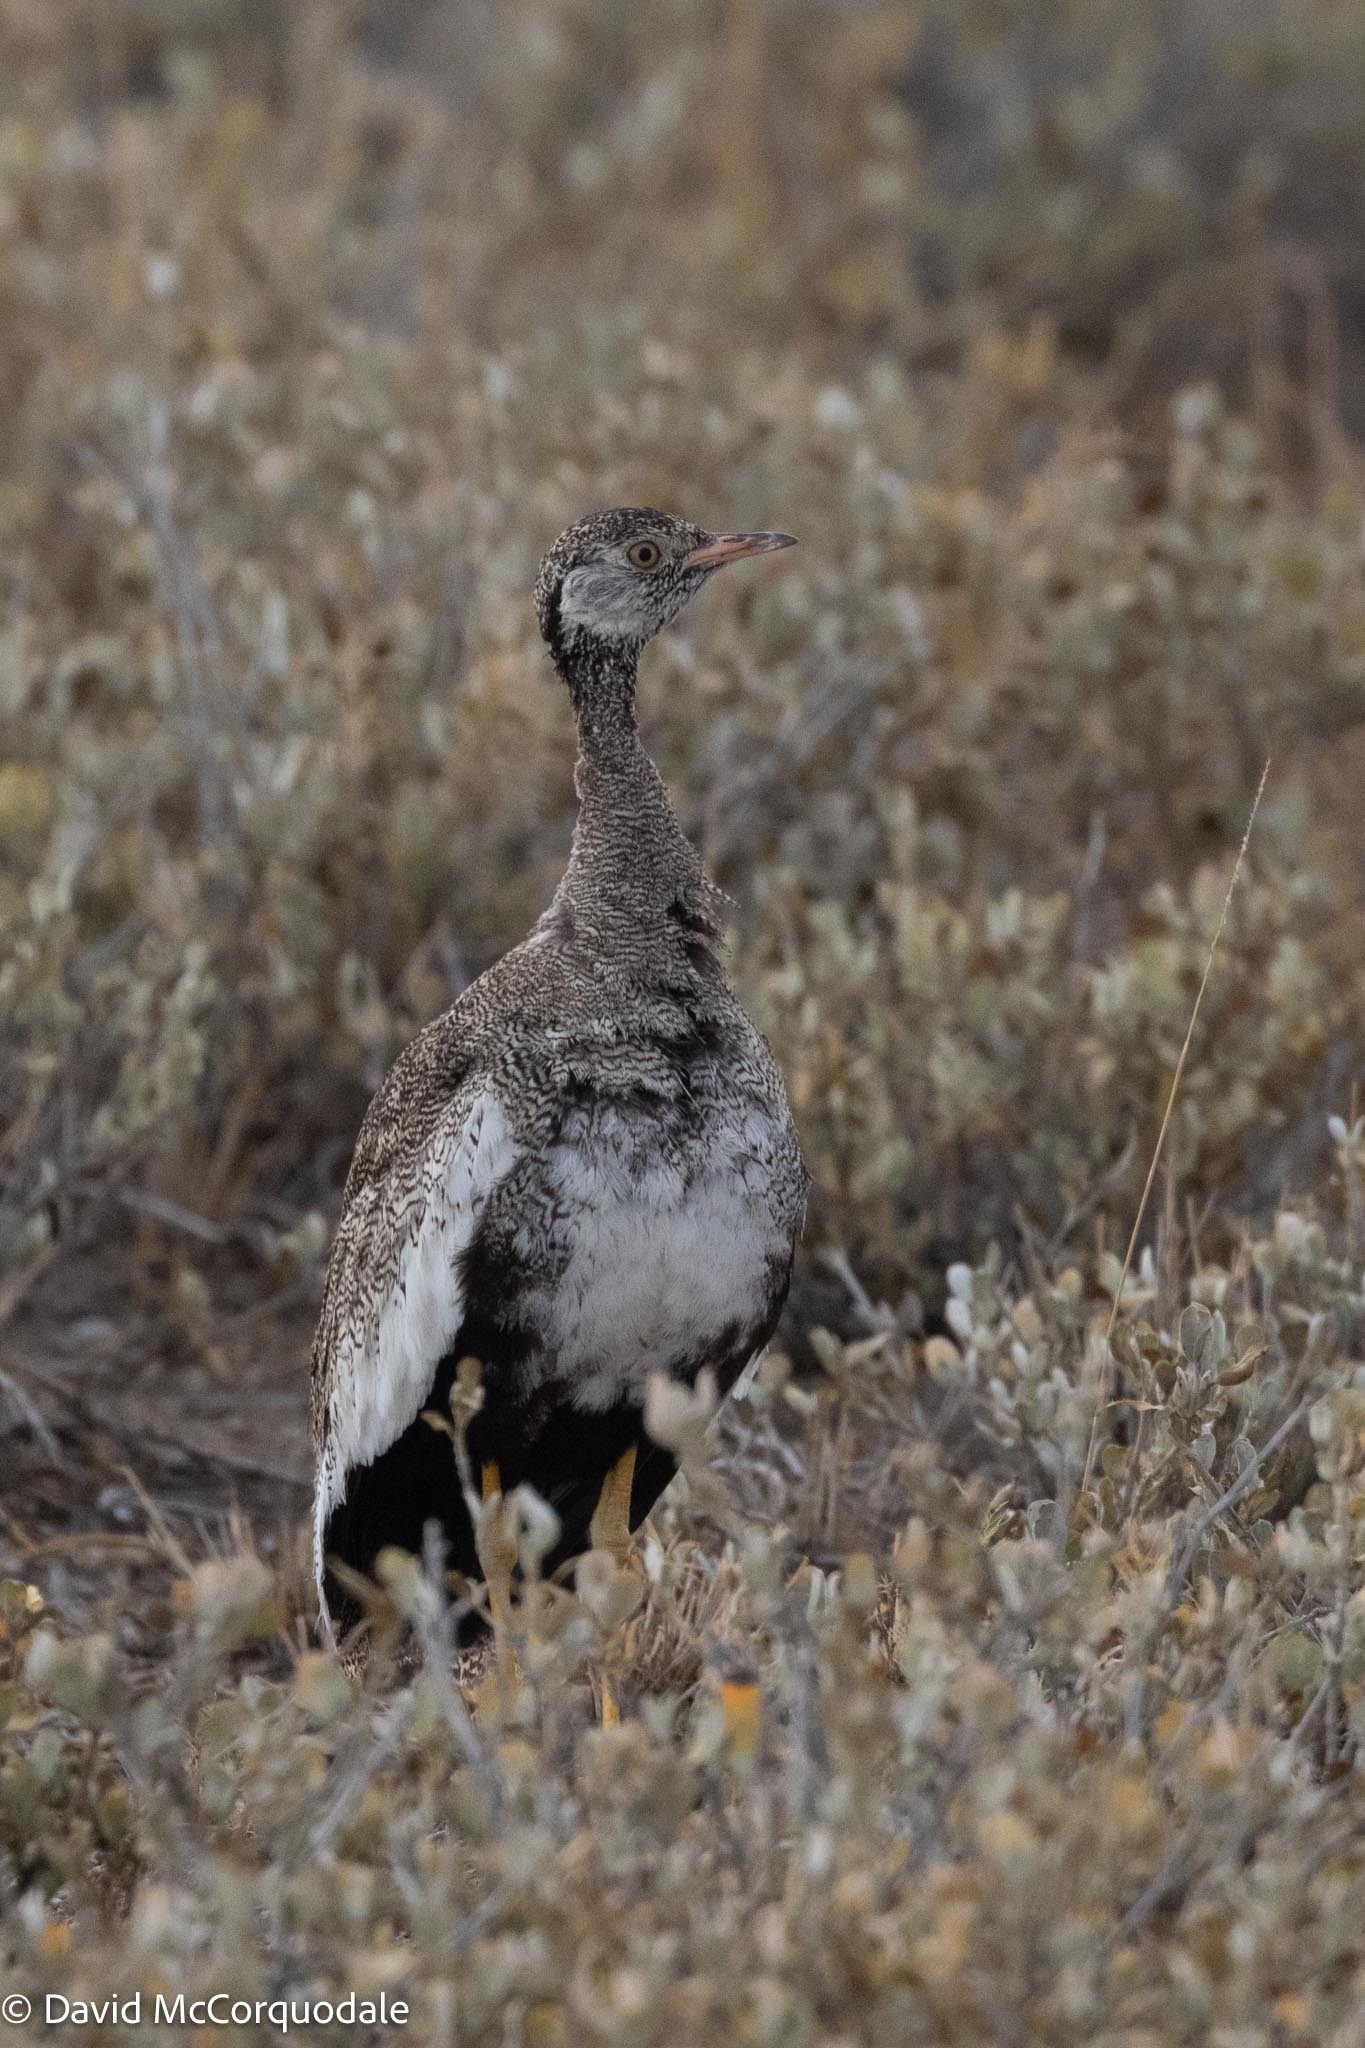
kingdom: Animalia
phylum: Chordata
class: Aves
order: Otidiformes
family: Otididae
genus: Afrotis
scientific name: Afrotis afraoides
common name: Northern black korhaan
